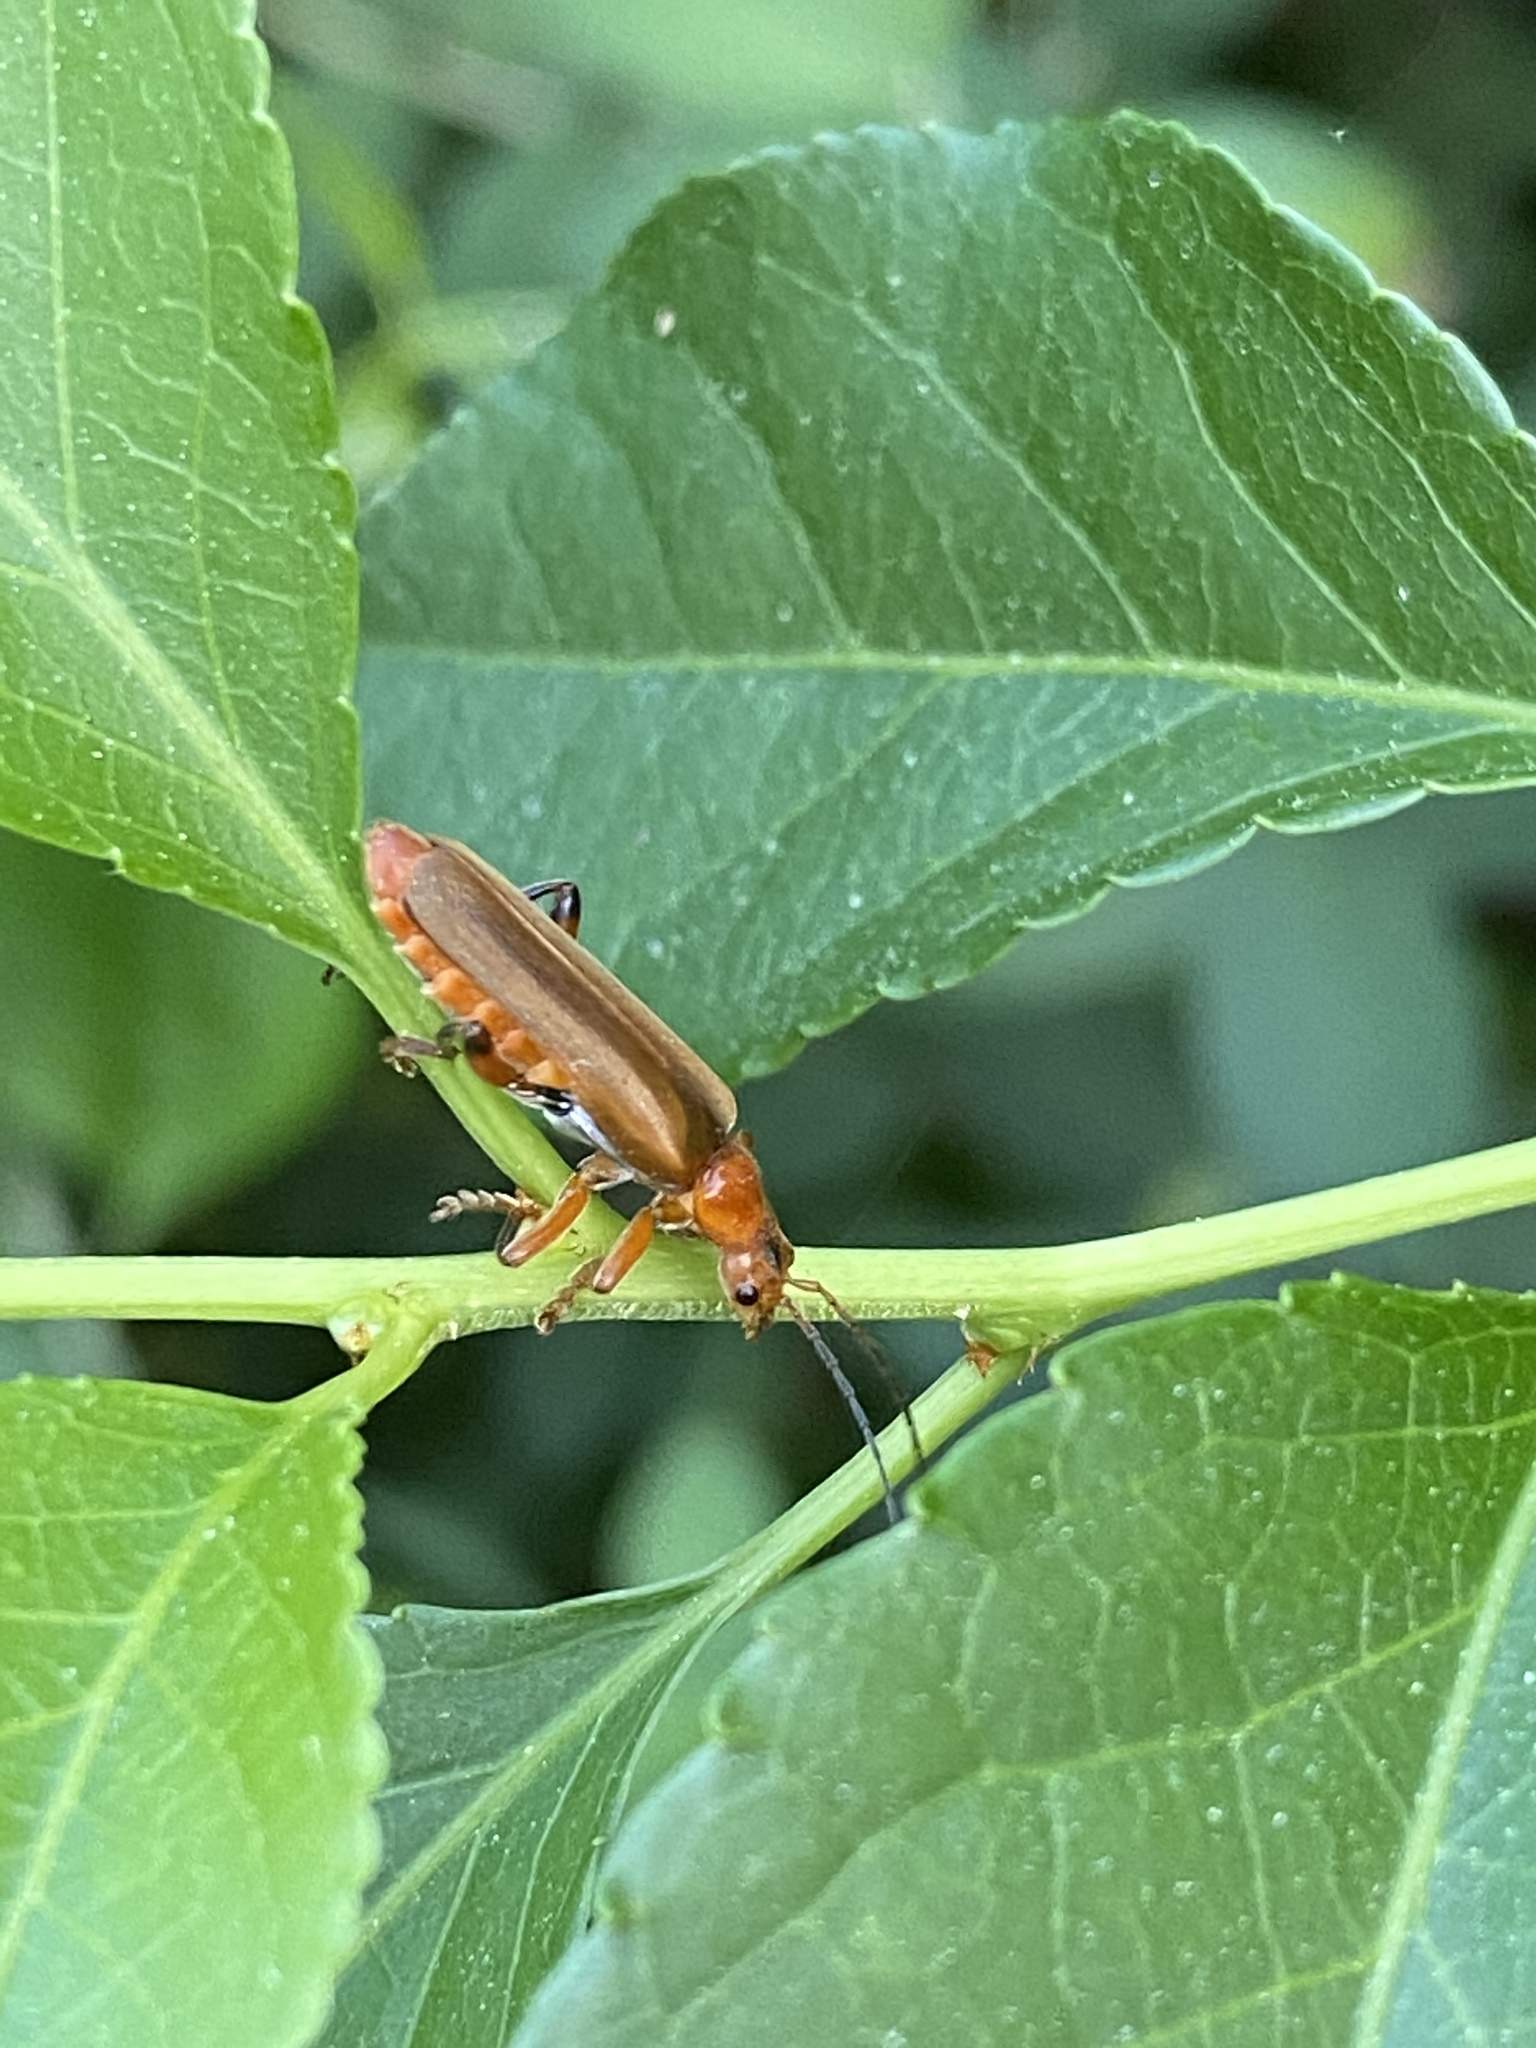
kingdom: Animalia
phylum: Arthropoda
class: Insecta
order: Coleoptera
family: Cantharidae
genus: Cantharis
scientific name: Cantharis livida
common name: Livid soldier beetle
